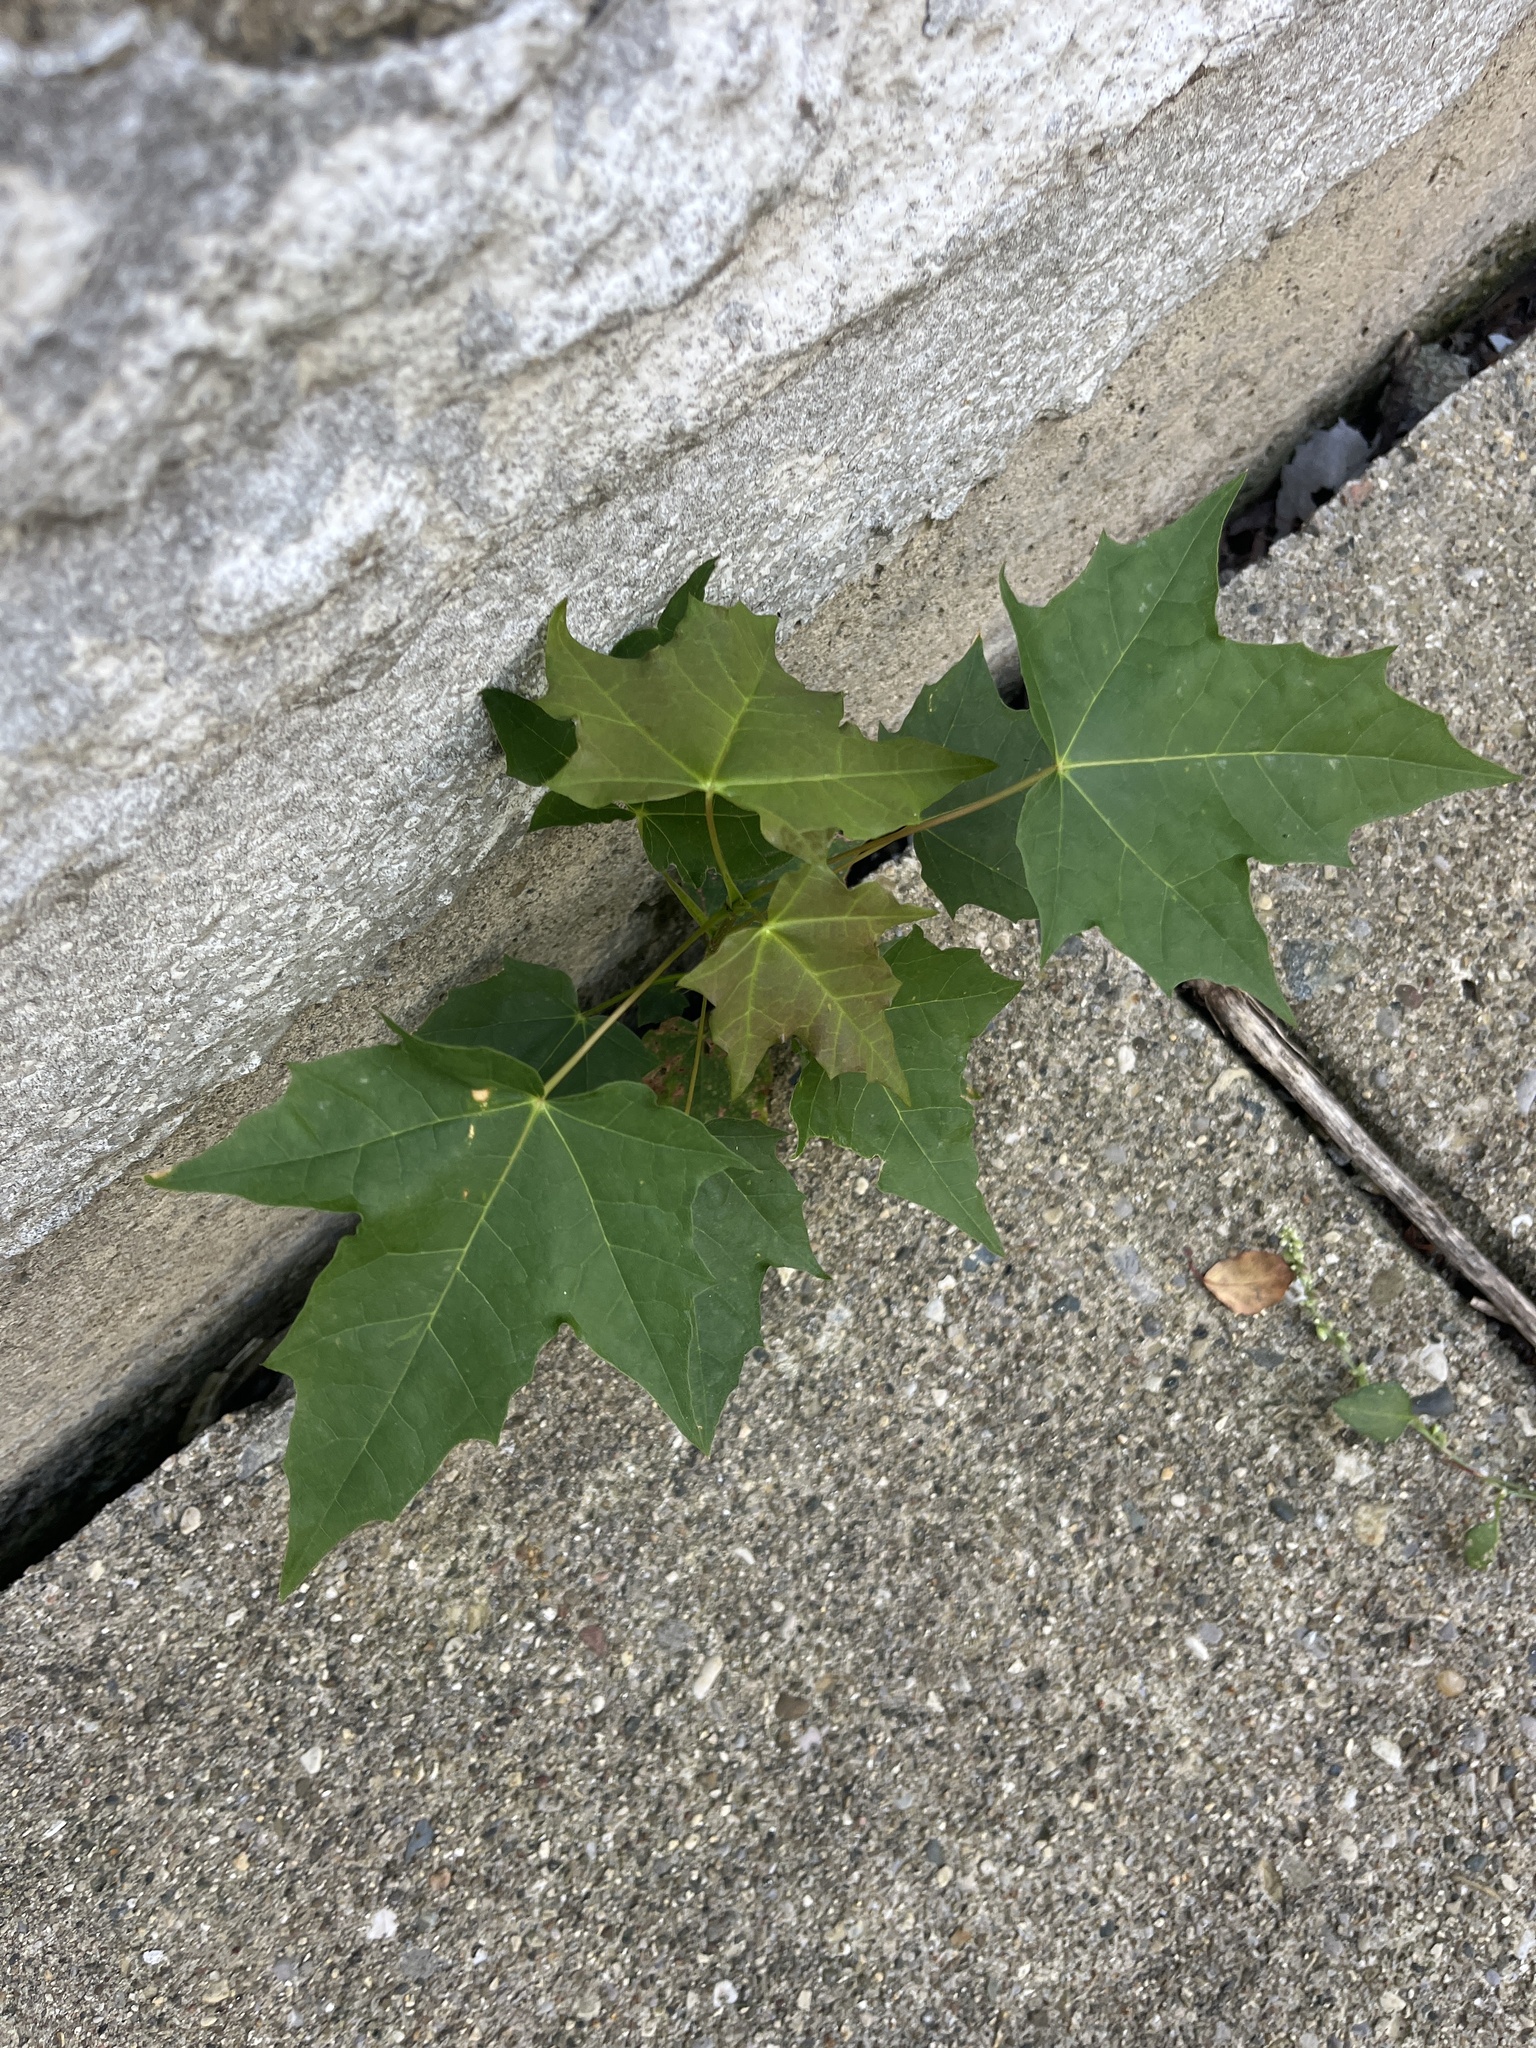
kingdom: Plantae
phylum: Tracheophyta
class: Magnoliopsida
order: Sapindales
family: Sapindaceae
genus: Acer
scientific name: Acer platanoides
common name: Norway maple
